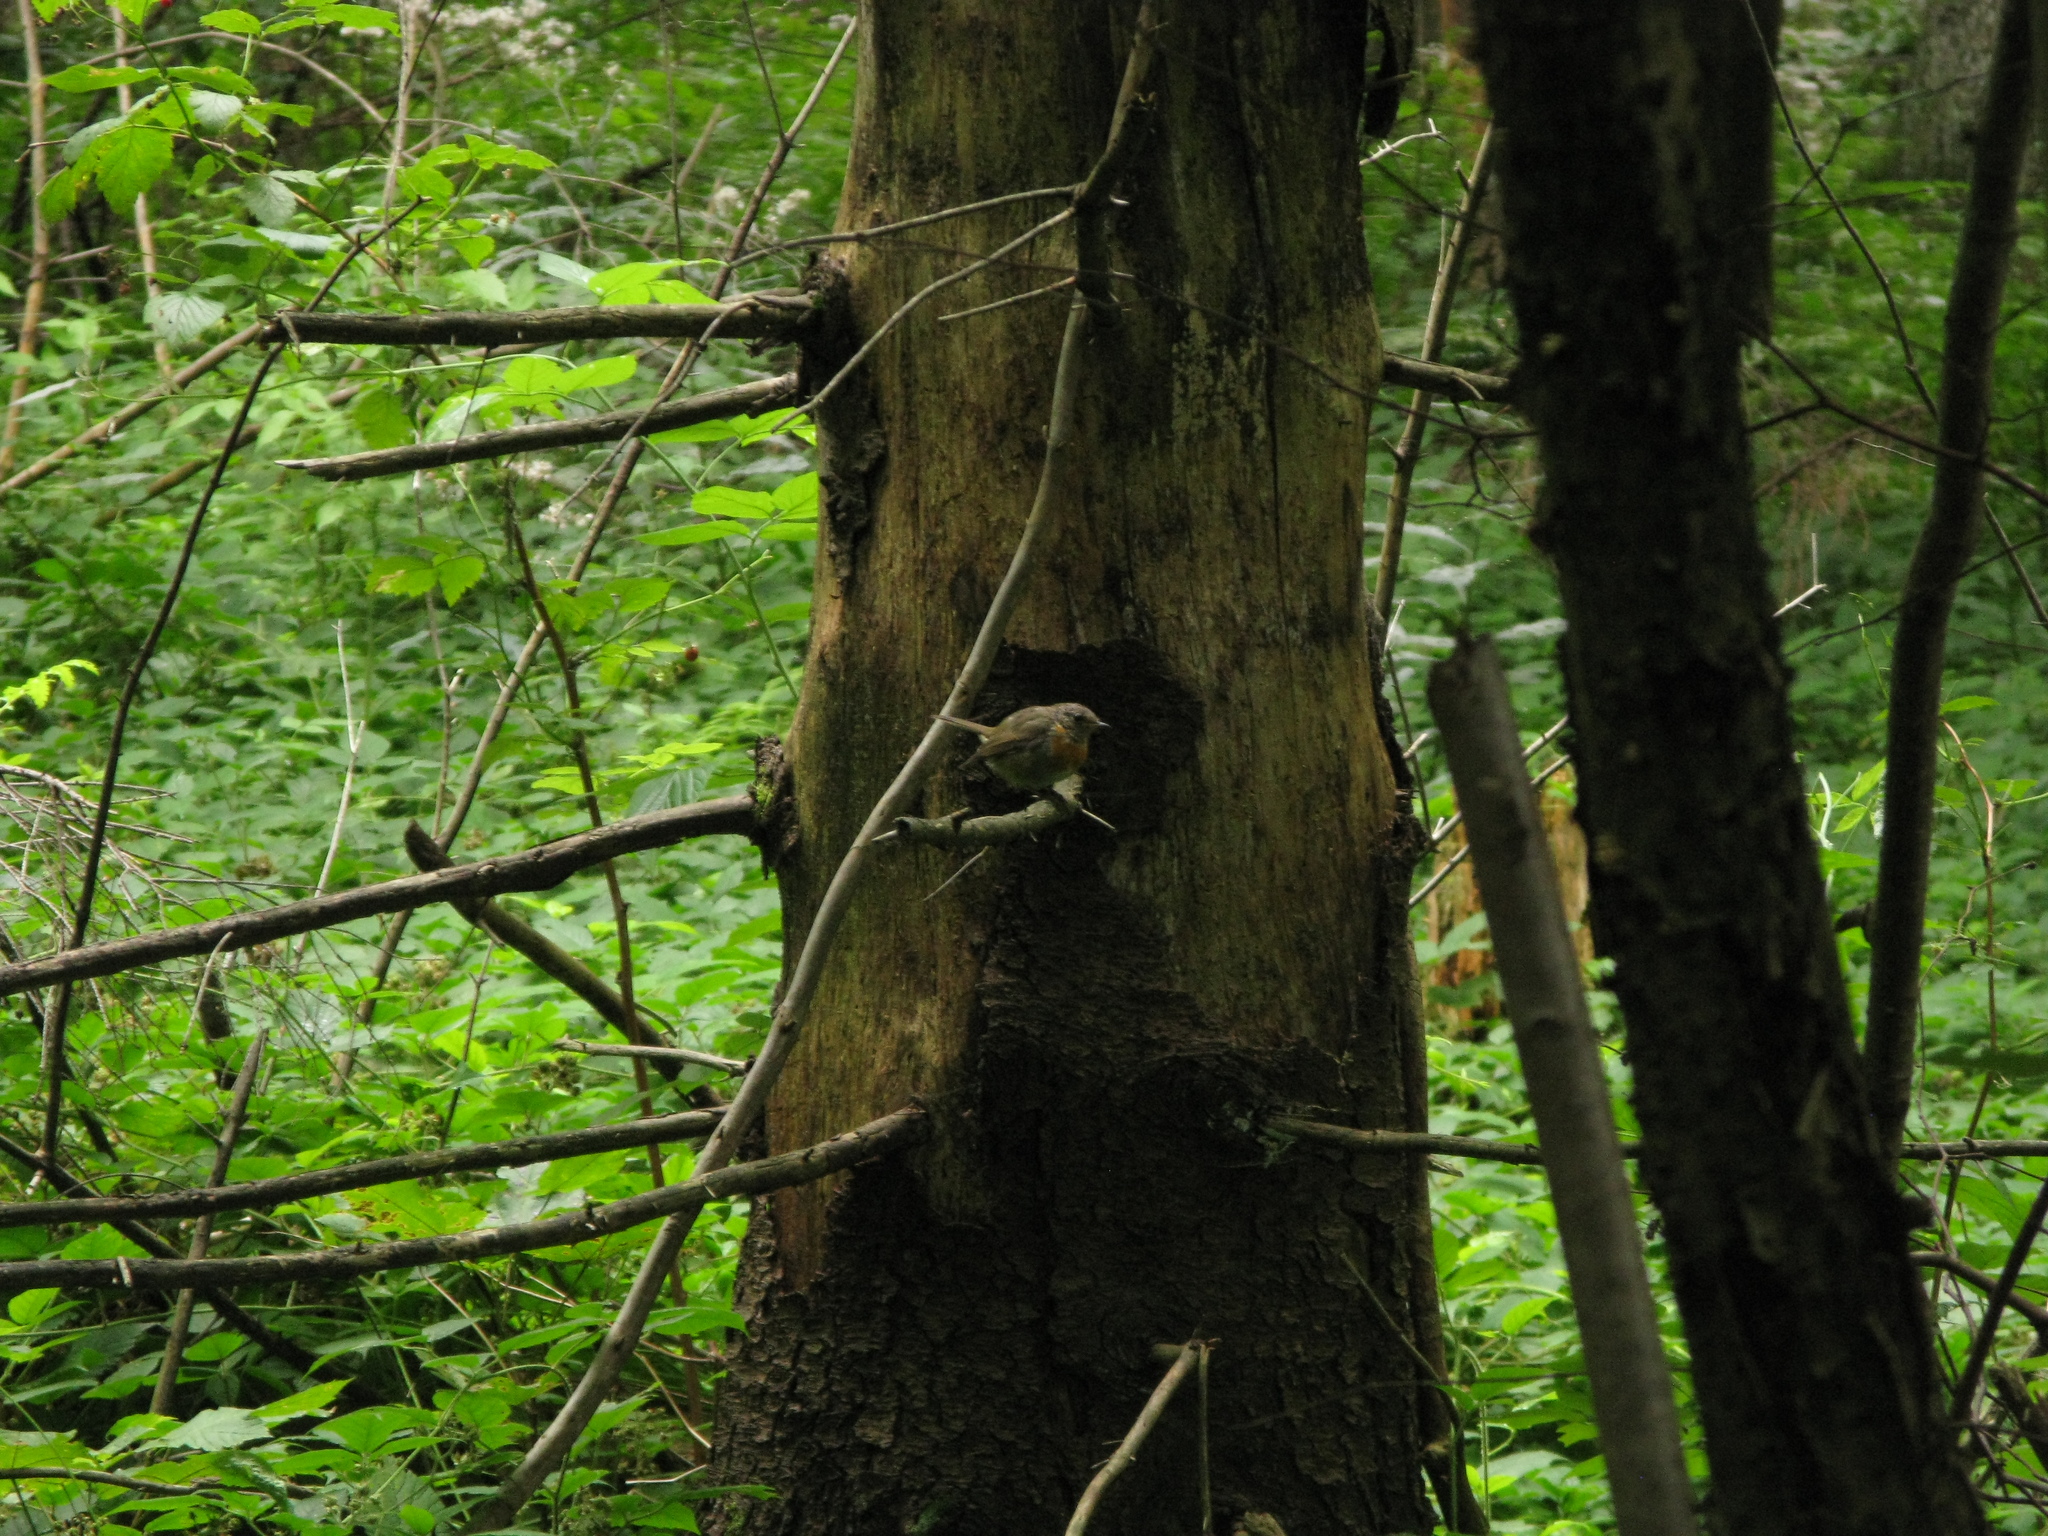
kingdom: Animalia
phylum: Chordata
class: Aves
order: Passeriformes
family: Muscicapidae
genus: Erithacus
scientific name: Erithacus rubecula
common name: European robin
